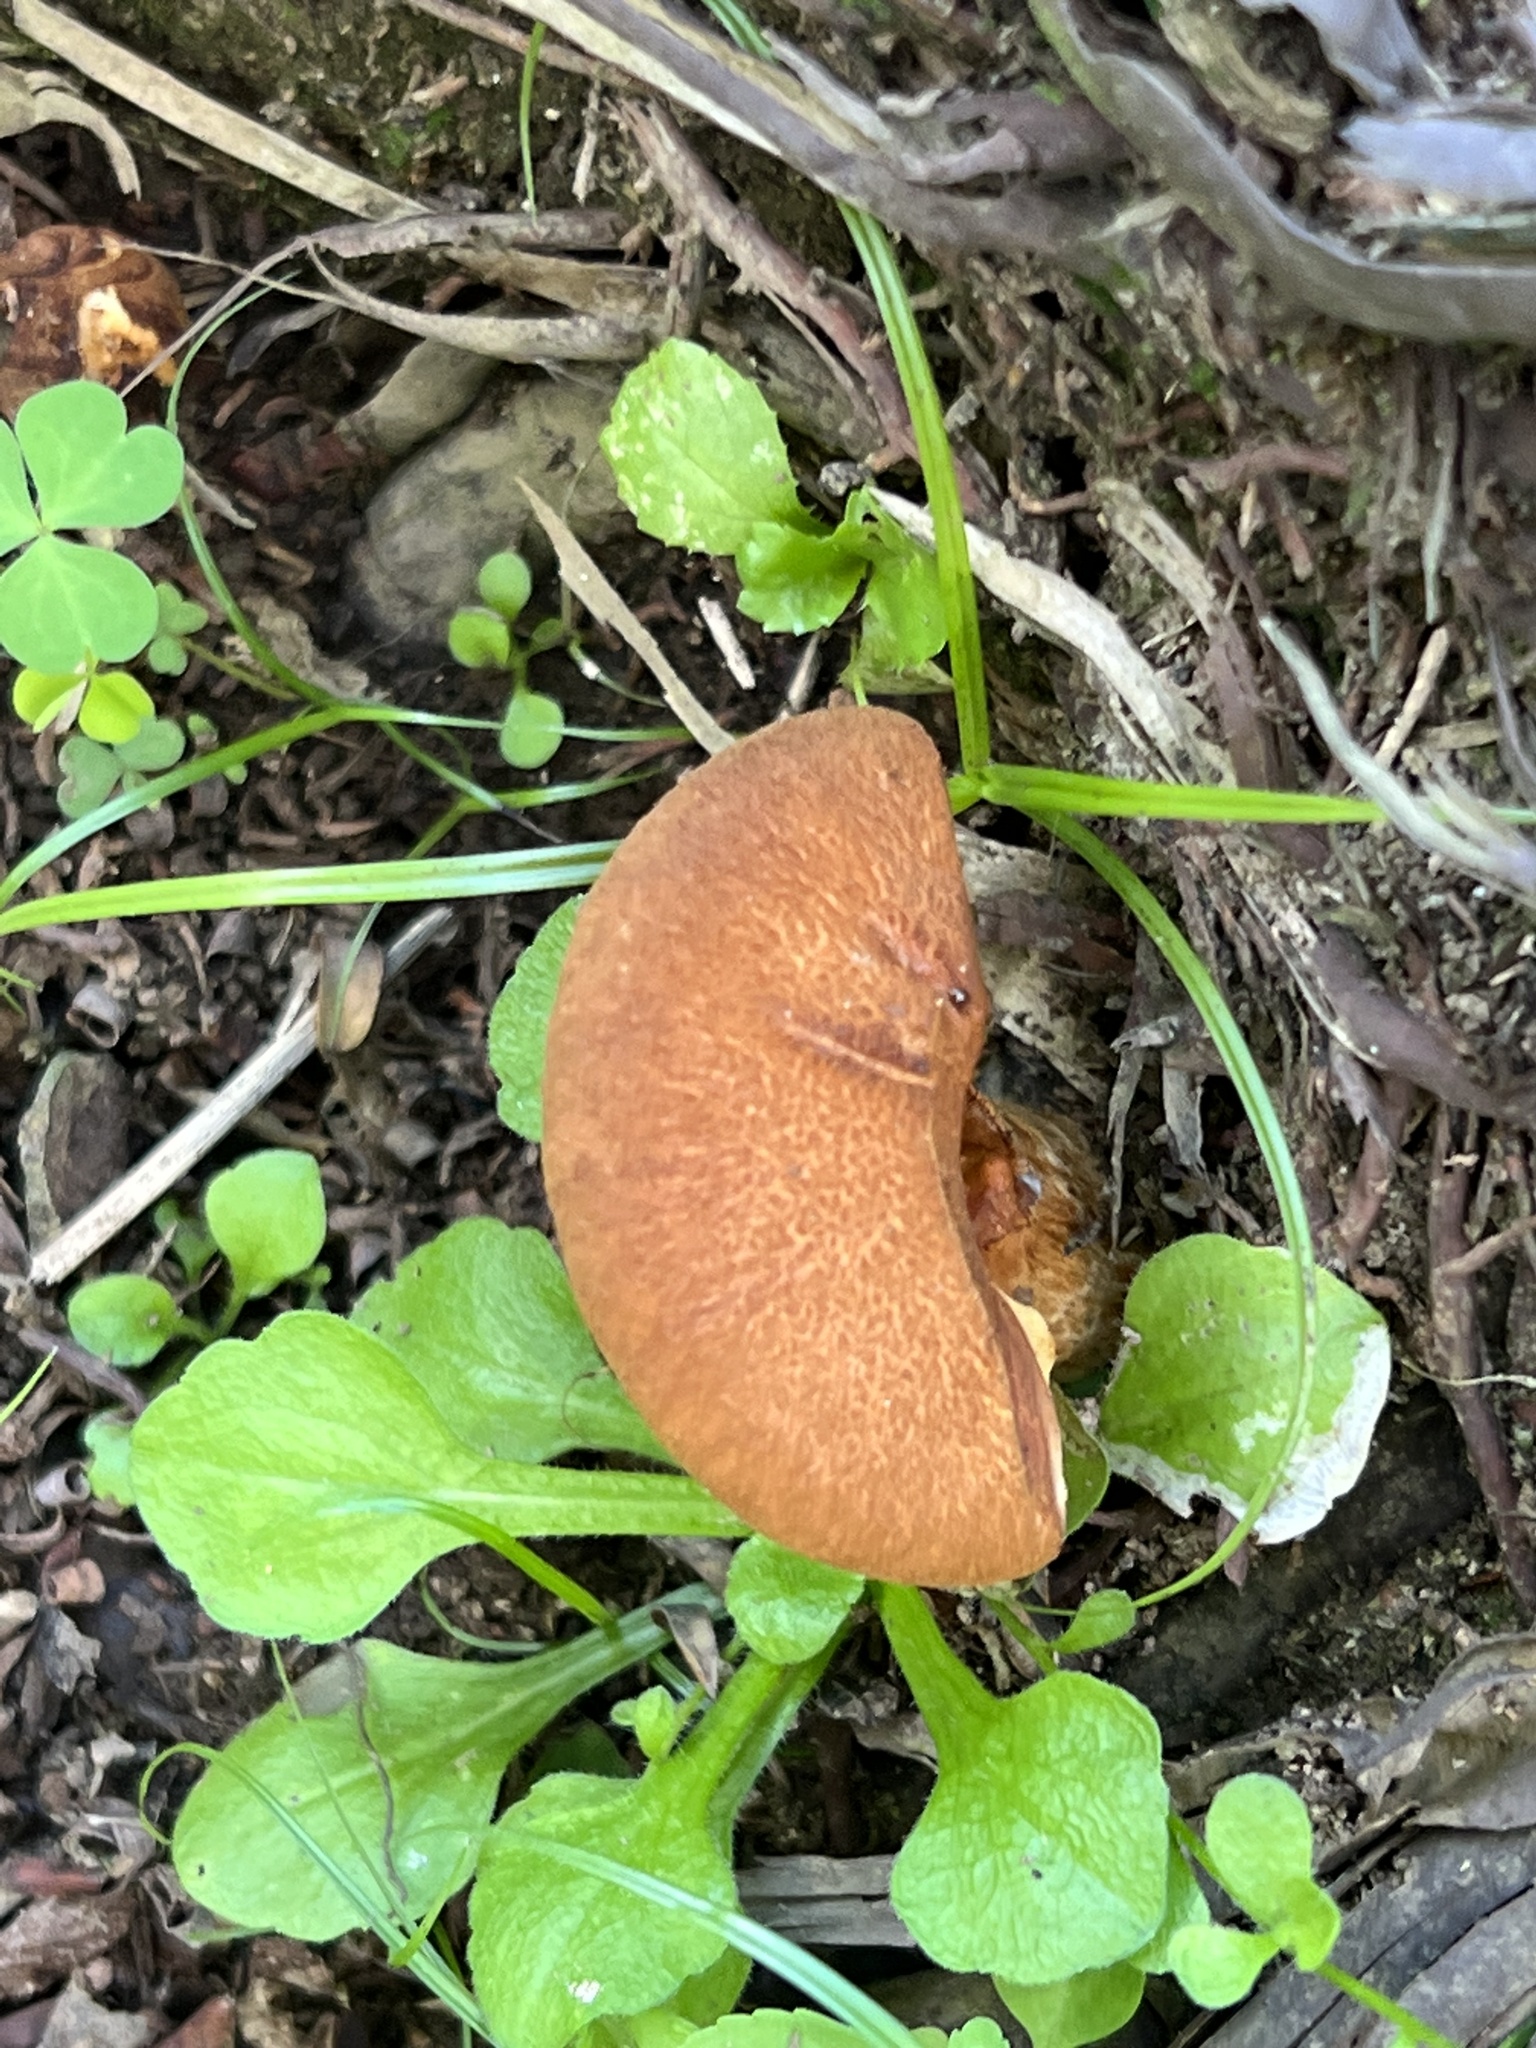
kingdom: Fungi
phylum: Basidiomycota
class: Agaricomycetes
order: Agaricales
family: Hymenogastraceae
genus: Gymnopilus
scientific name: Gymnopilus robustus
